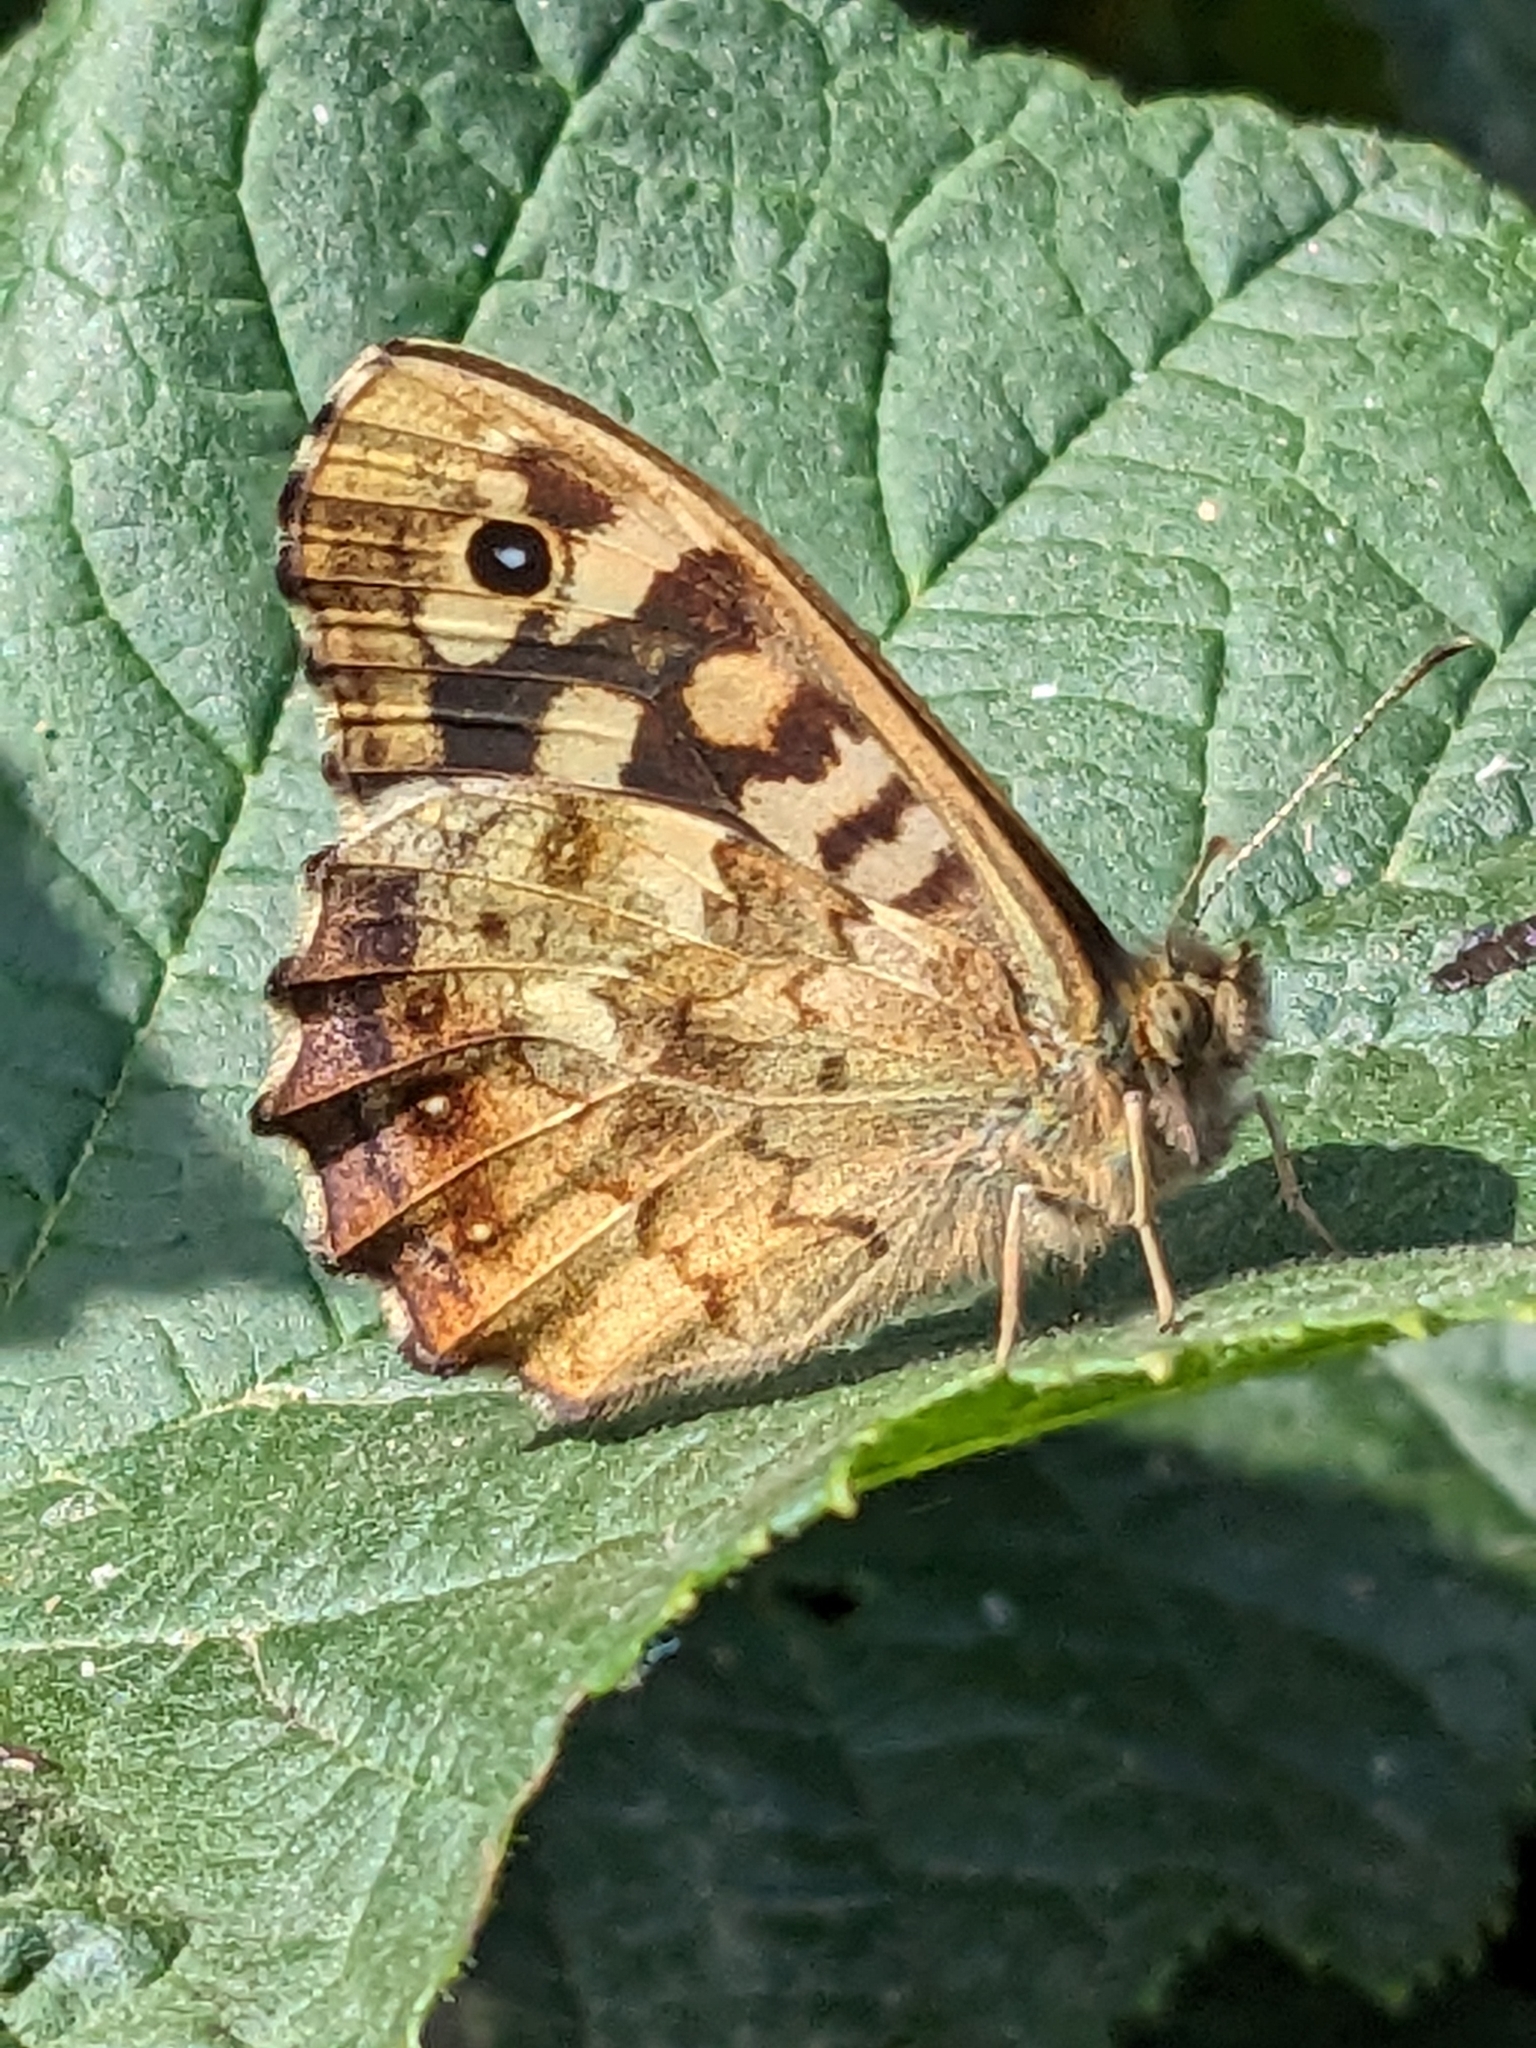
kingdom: Animalia
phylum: Arthropoda
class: Insecta
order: Lepidoptera
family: Nymphalidae
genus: Pararge
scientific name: Pararge aegeria
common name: Speckled wood
